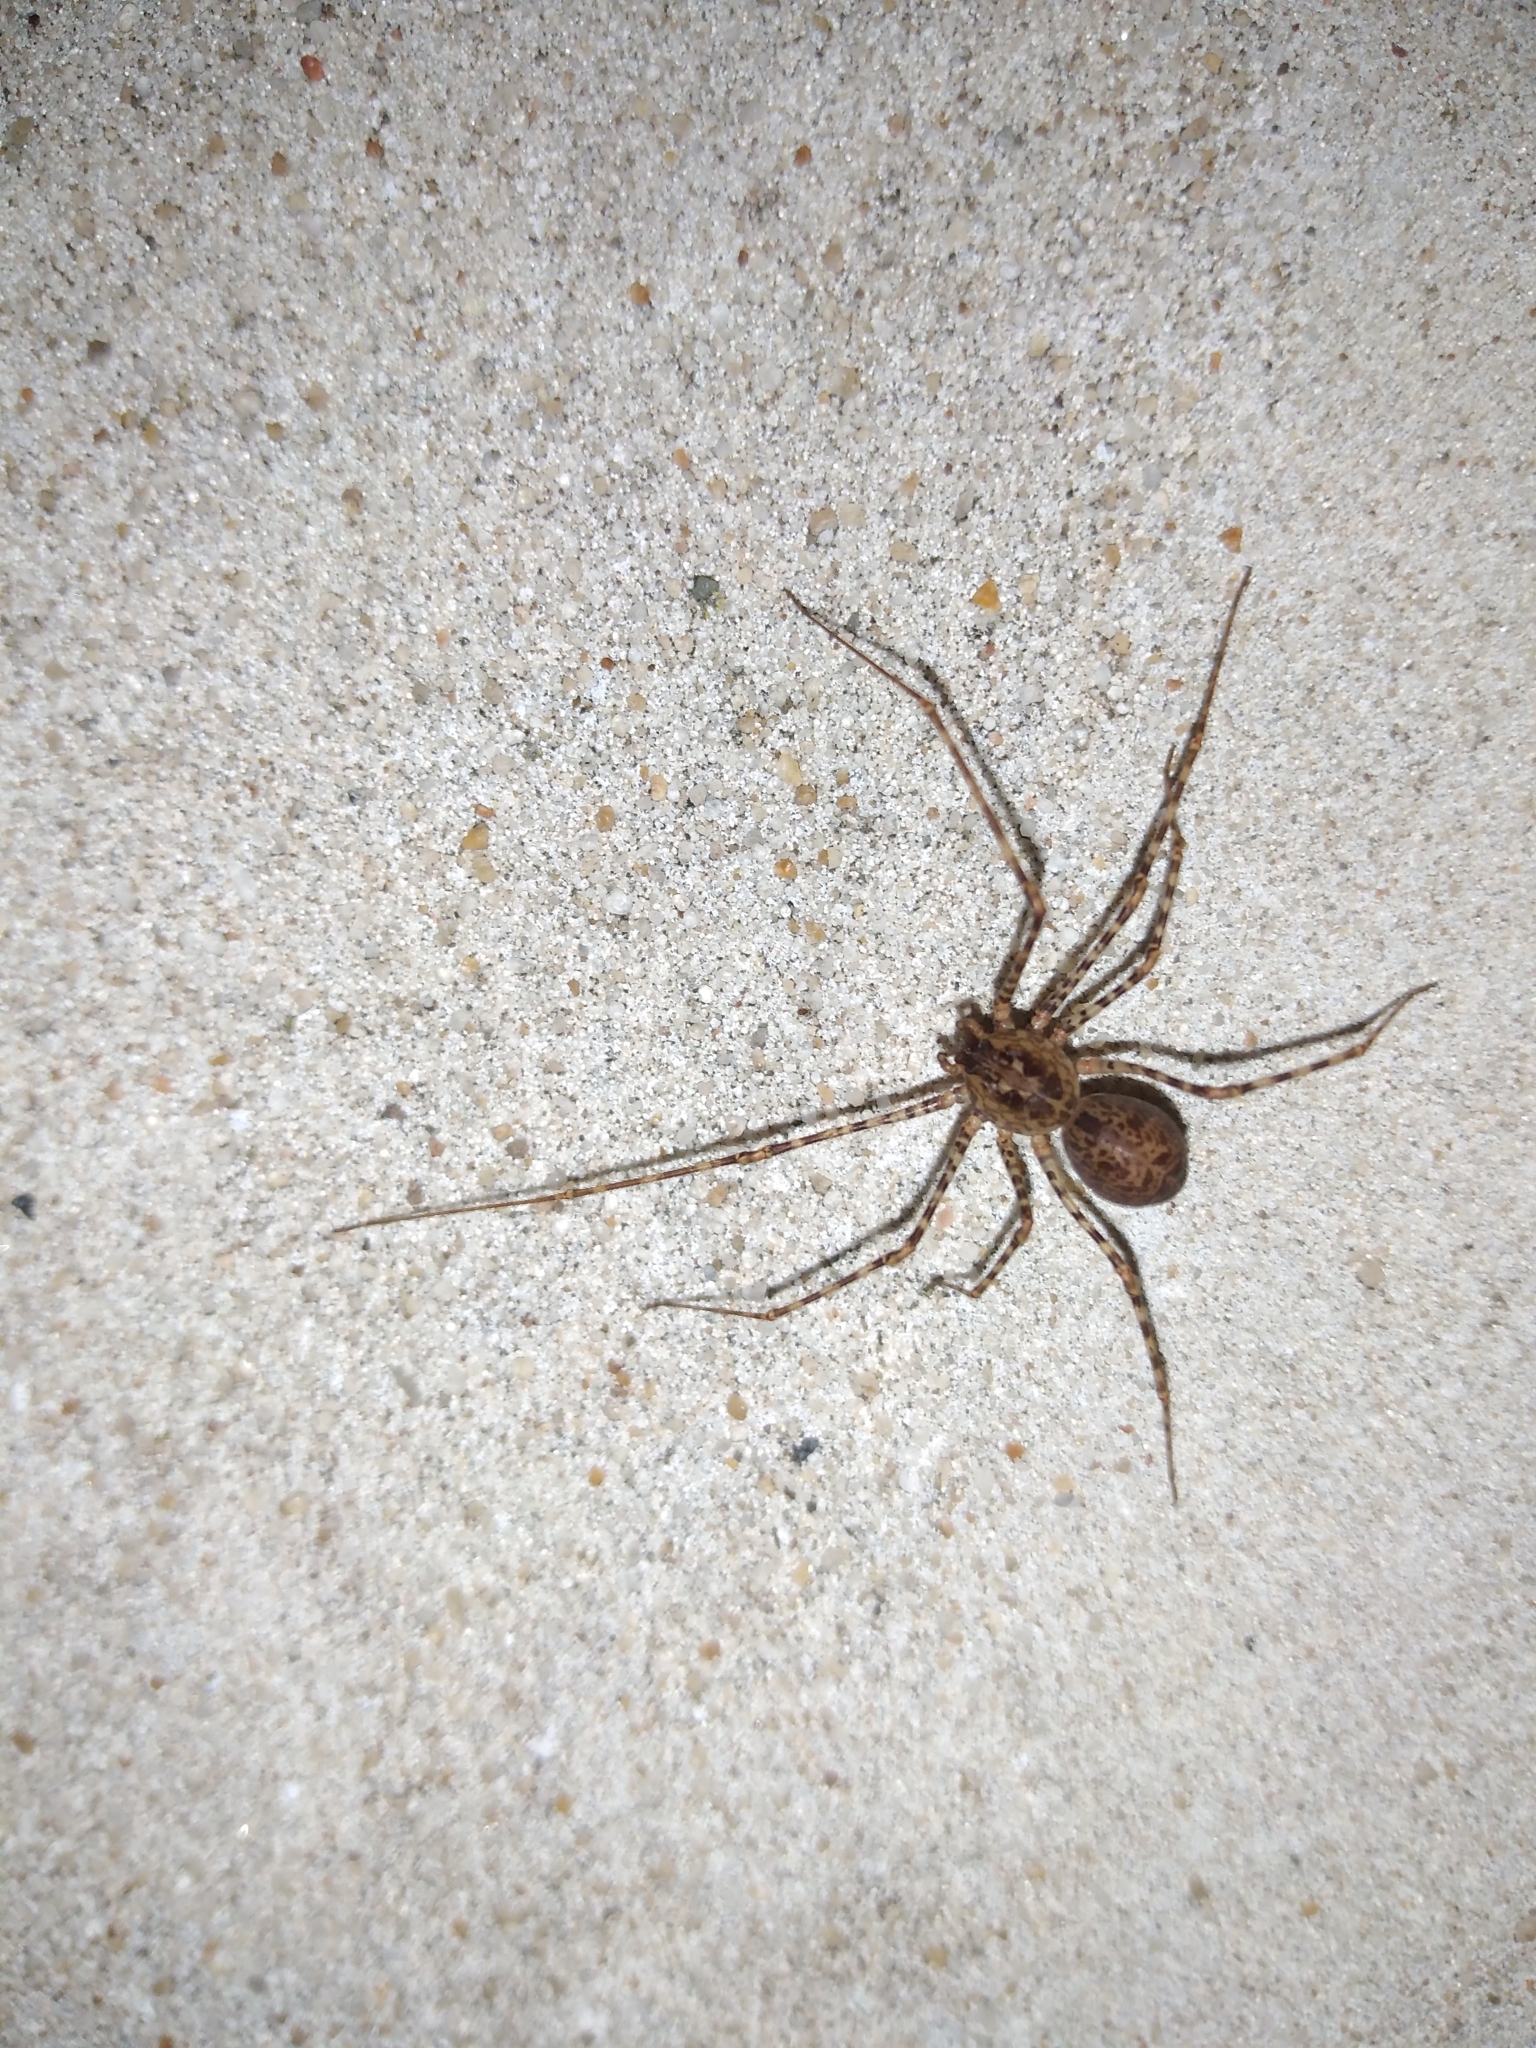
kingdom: Animalia
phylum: Arthropoda
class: Arachnida
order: Araneae
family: Scytodidae
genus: Scytodes
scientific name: Scytodes globula
